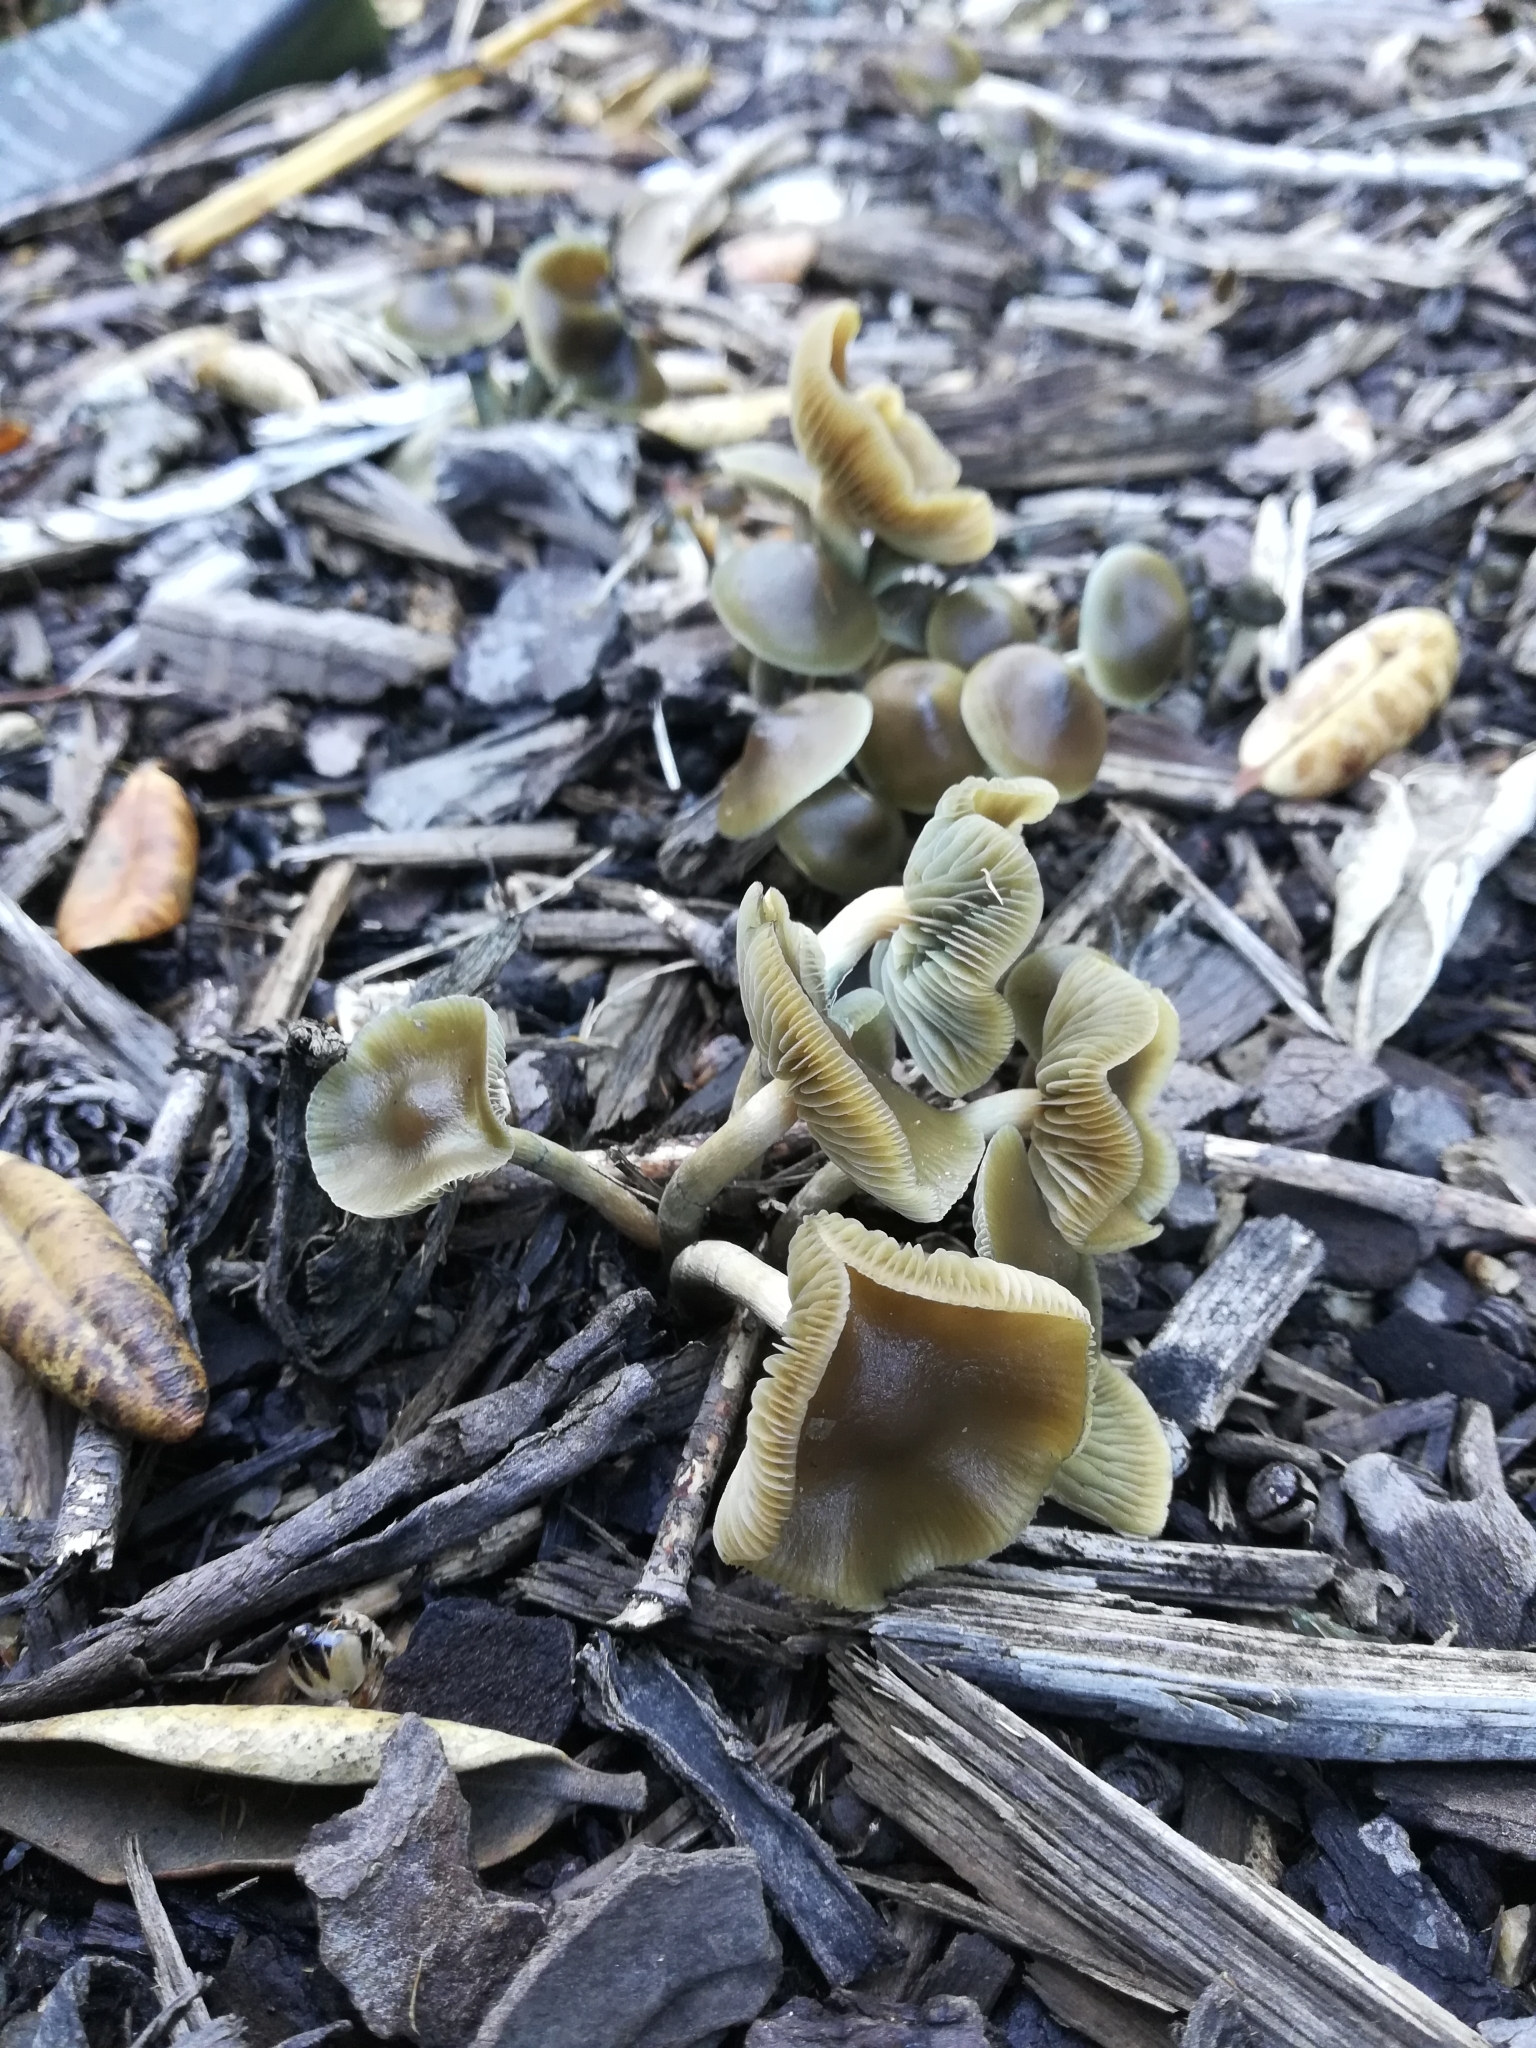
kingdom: Fungi
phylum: Basidiomycota
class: Agaricomycetes
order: Agaricales
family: Hymenogastraceae
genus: Psilocybe
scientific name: Psilocybe angulospora
